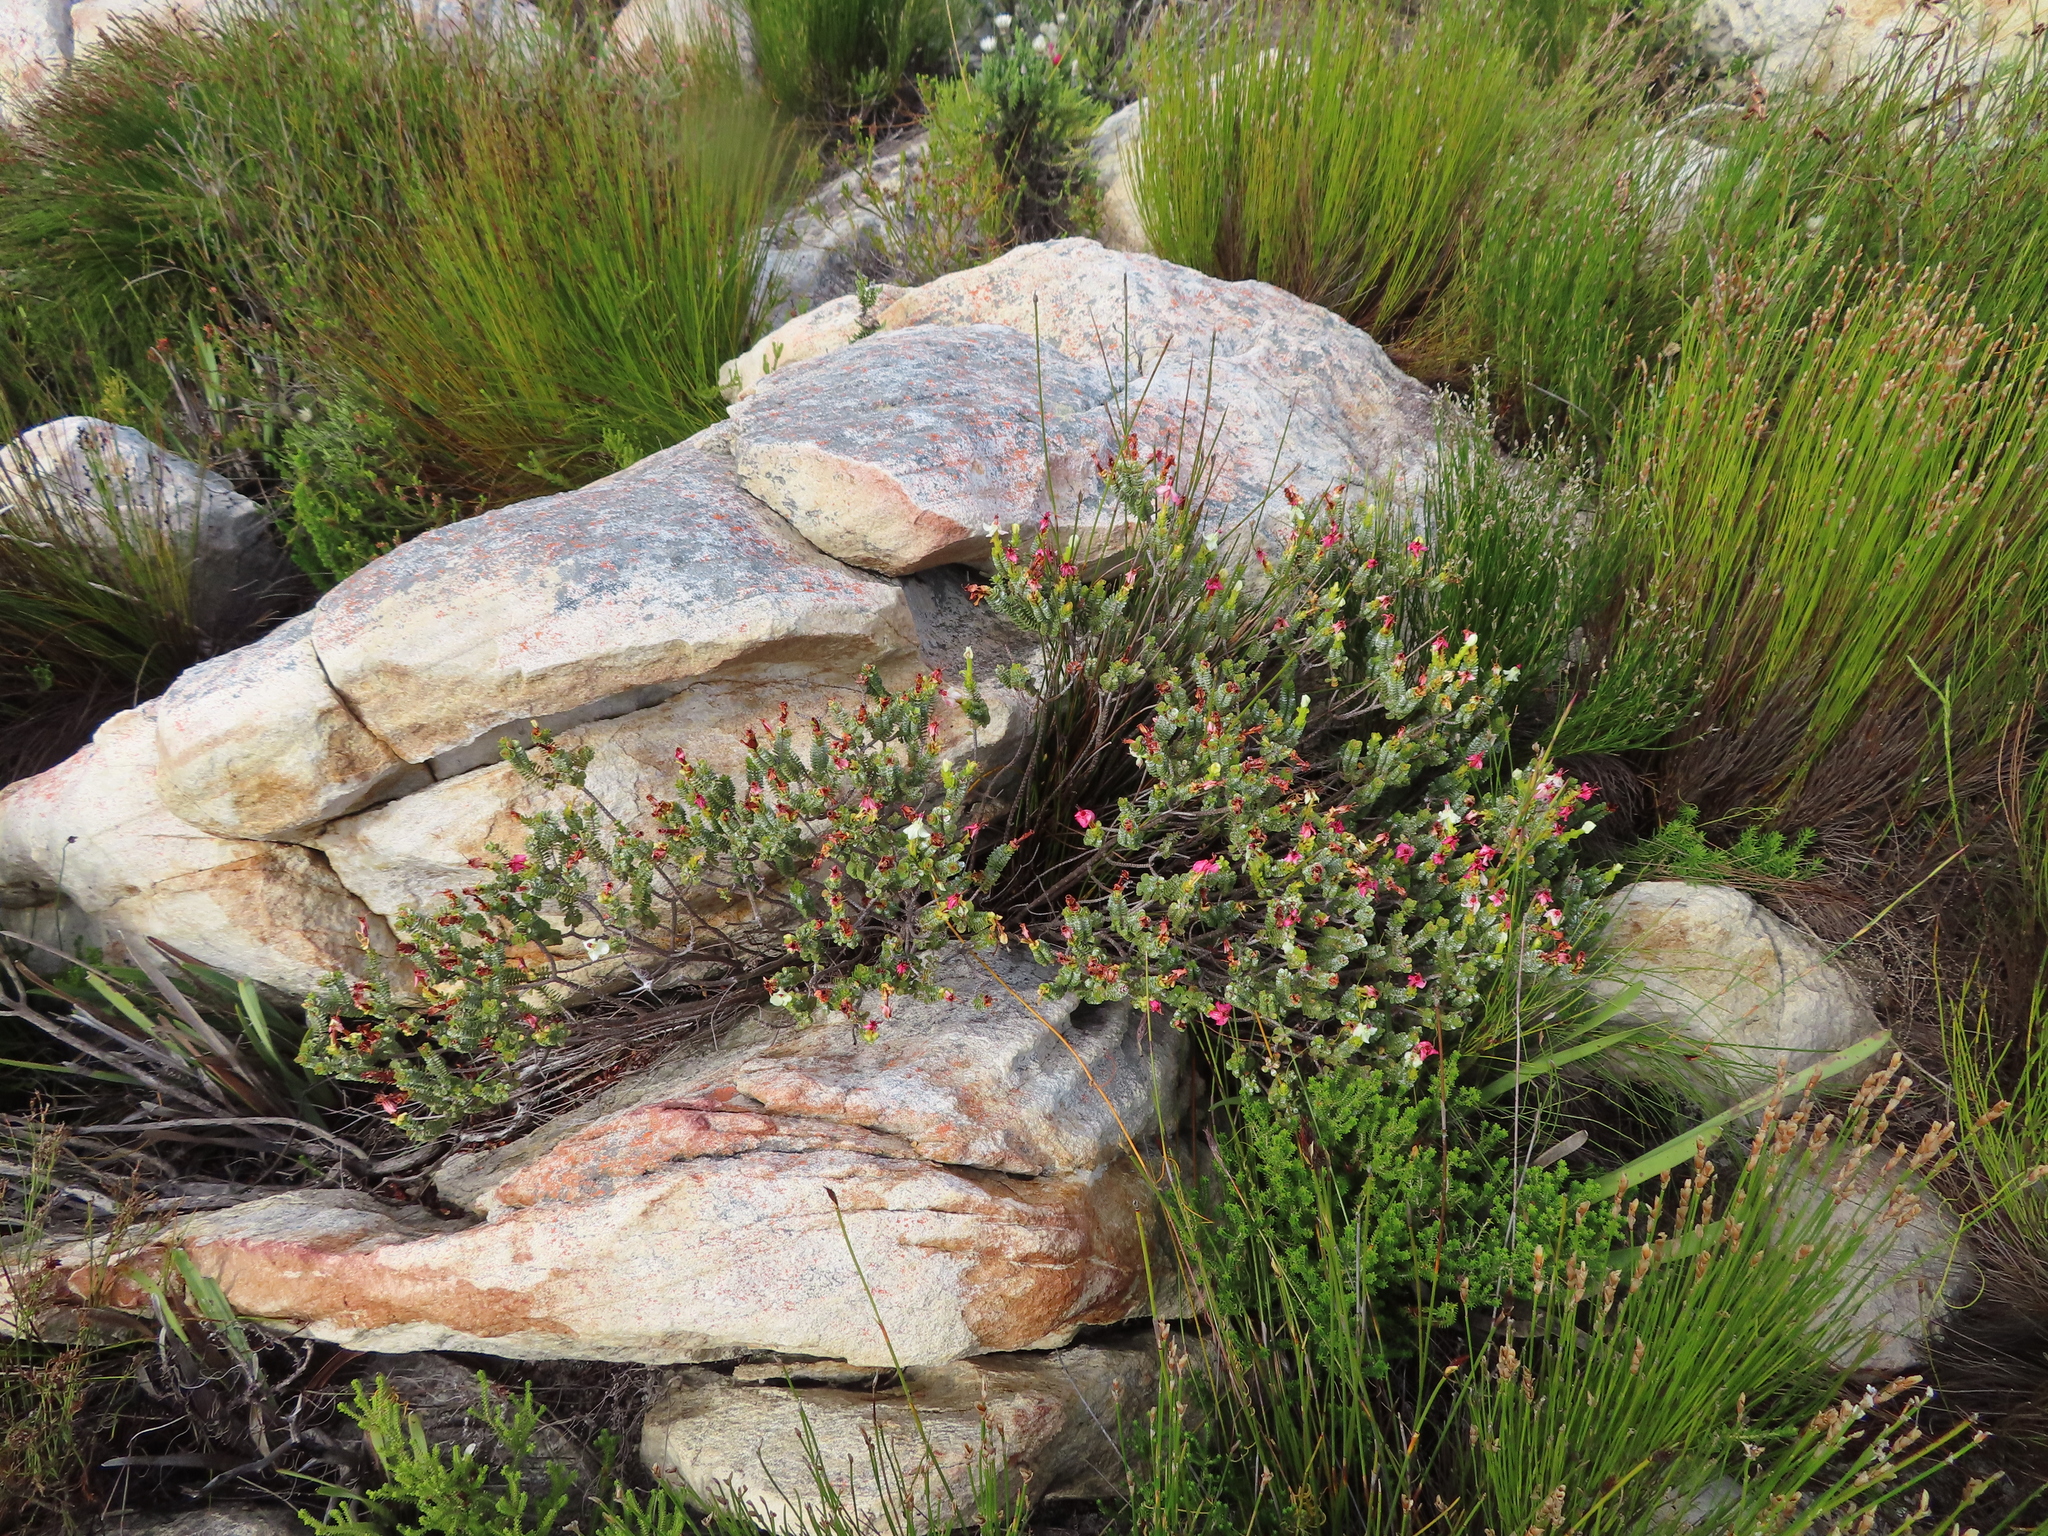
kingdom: Plantae
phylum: Tracheophyta
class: Magnoliopsida
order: Myrtales
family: Penaeaceae
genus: Saltera
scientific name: Saltera sarcocolla
